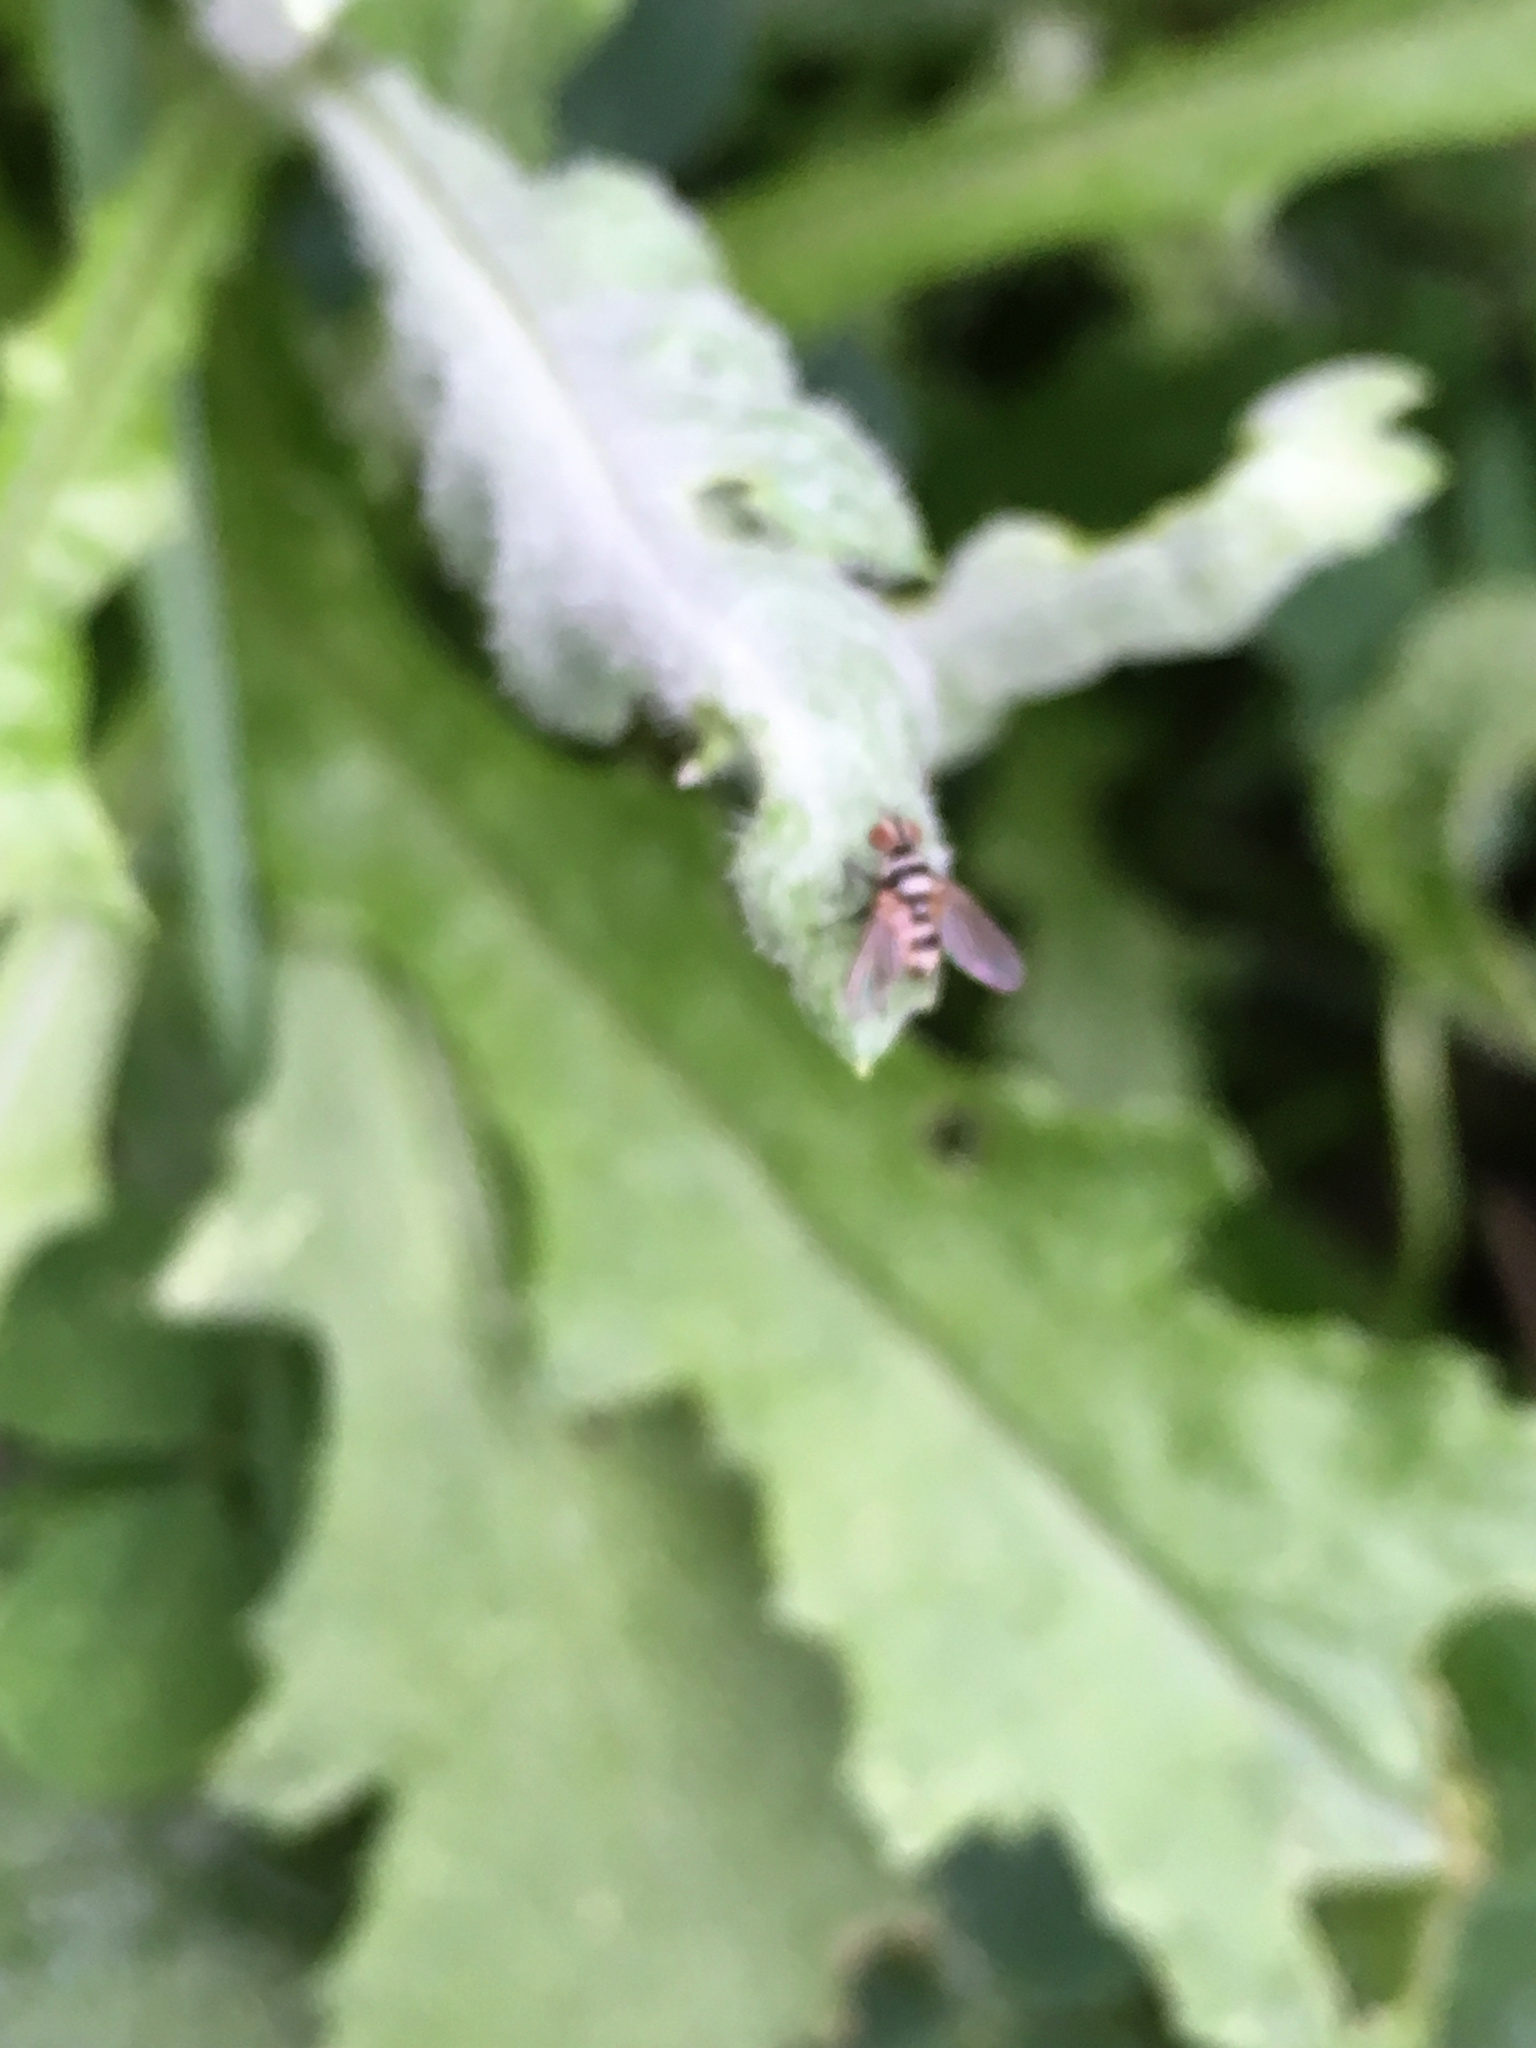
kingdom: Animalia
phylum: Arthropoda
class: Insecta
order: Diptera
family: Tachinidae
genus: Trigonospila
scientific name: Trigonospila brevifacies
